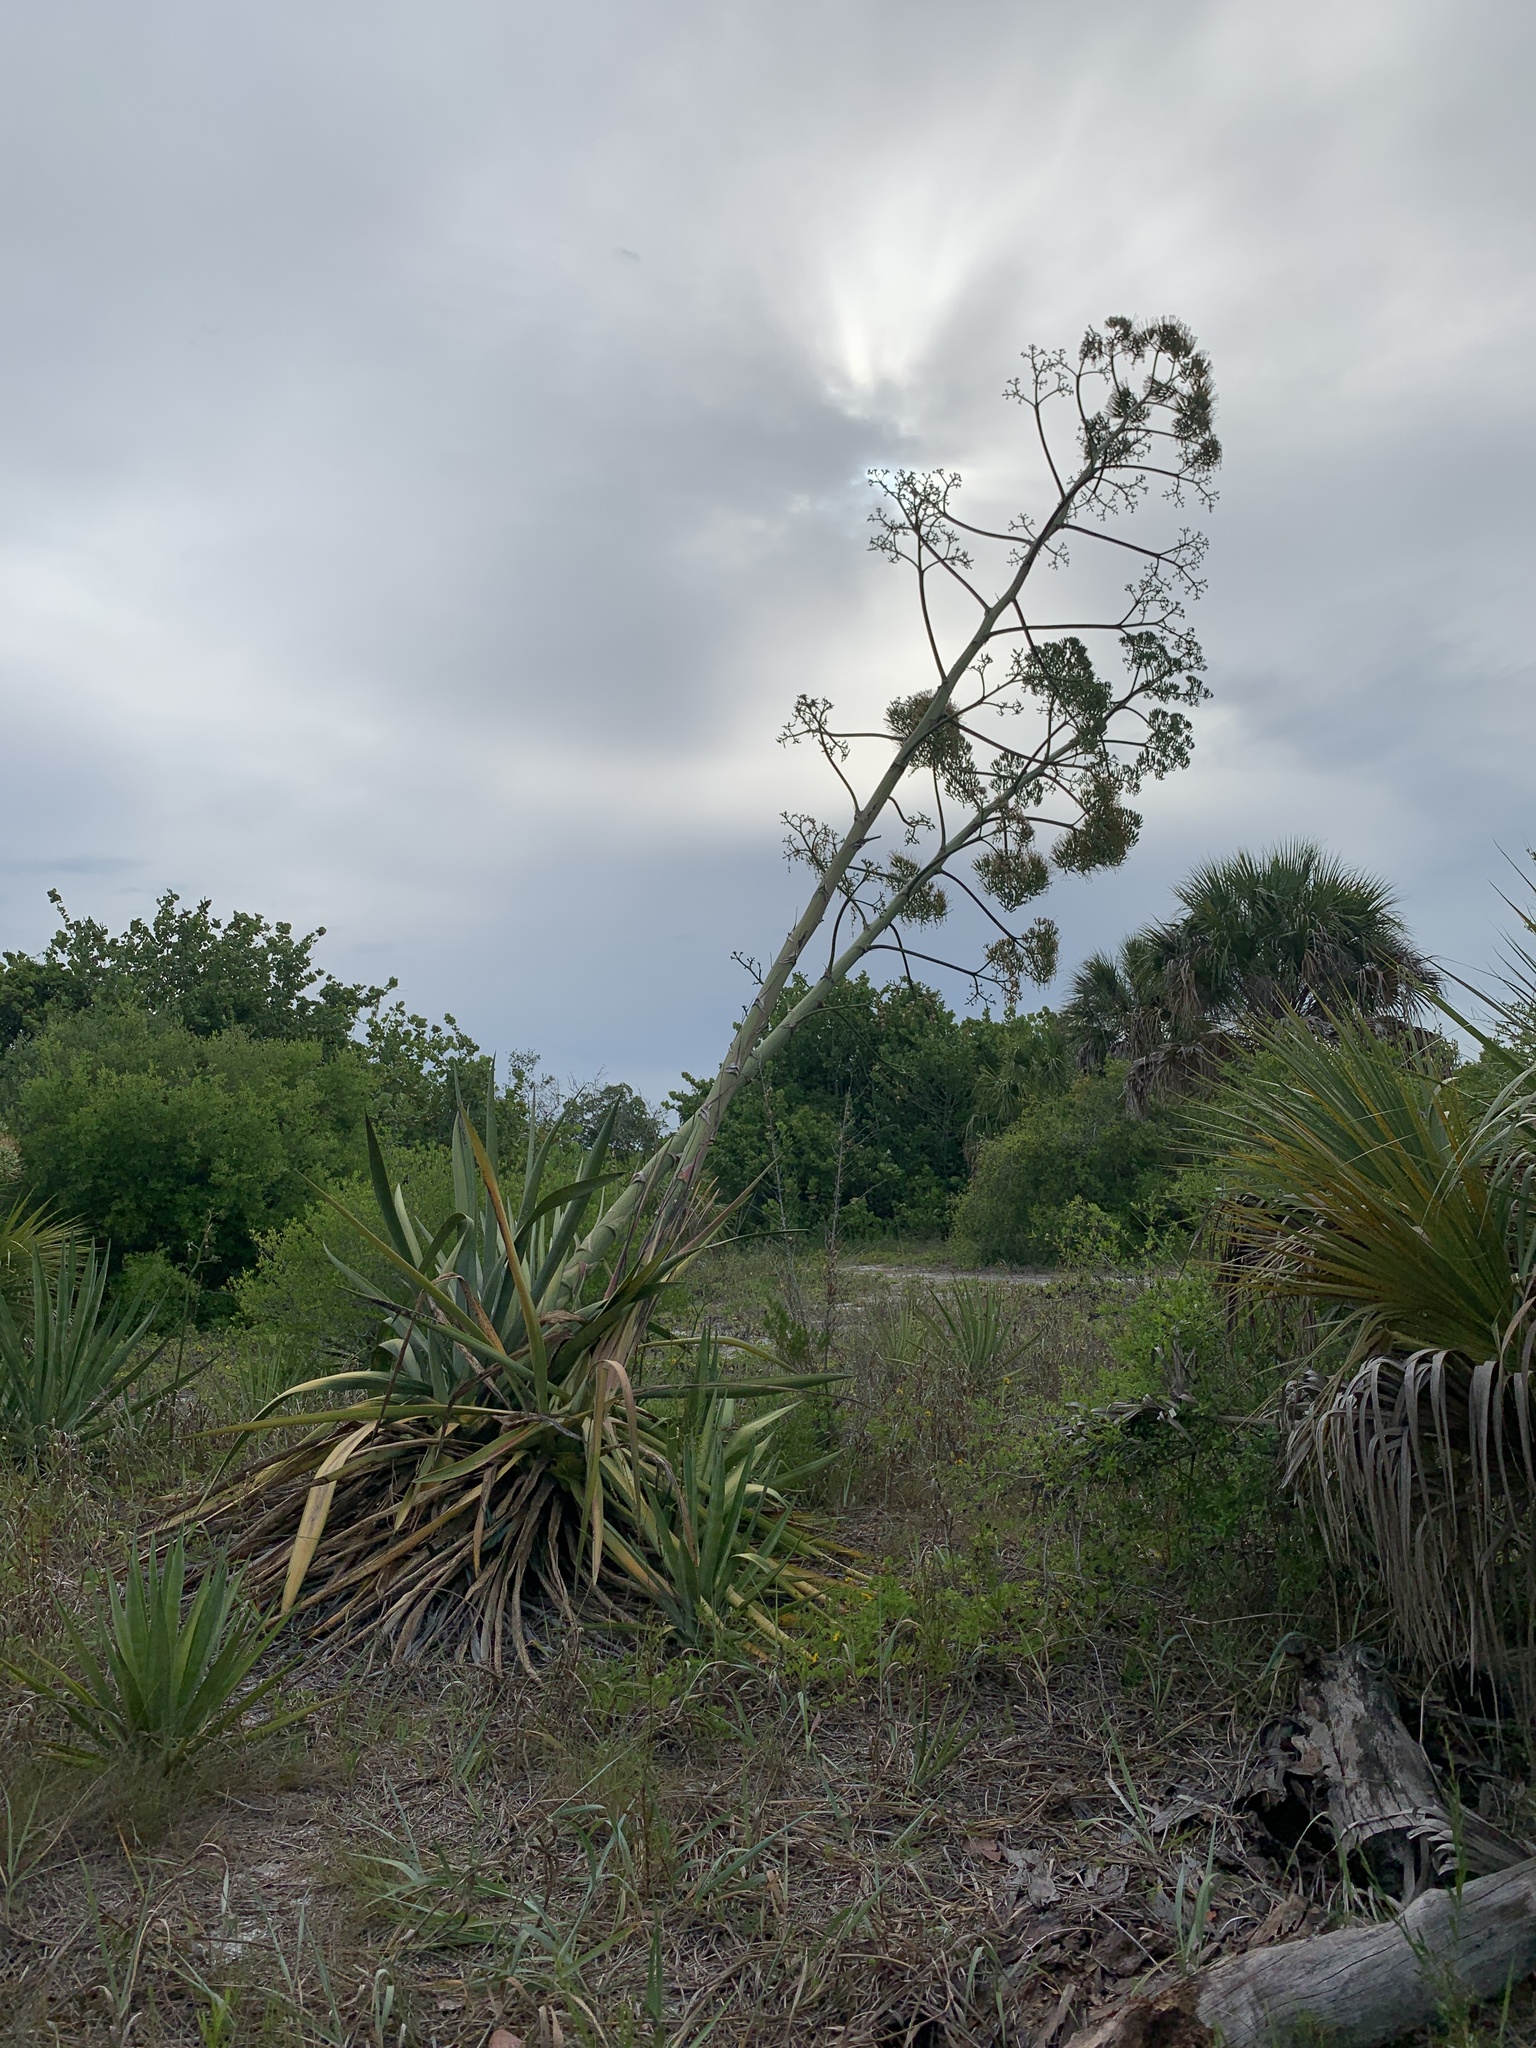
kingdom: Plantae
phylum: Tracheophyta
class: Liliopsida
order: Asparagales
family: Asparagaceae
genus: Agave
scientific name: Agave sisalana
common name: Sisal hemp
